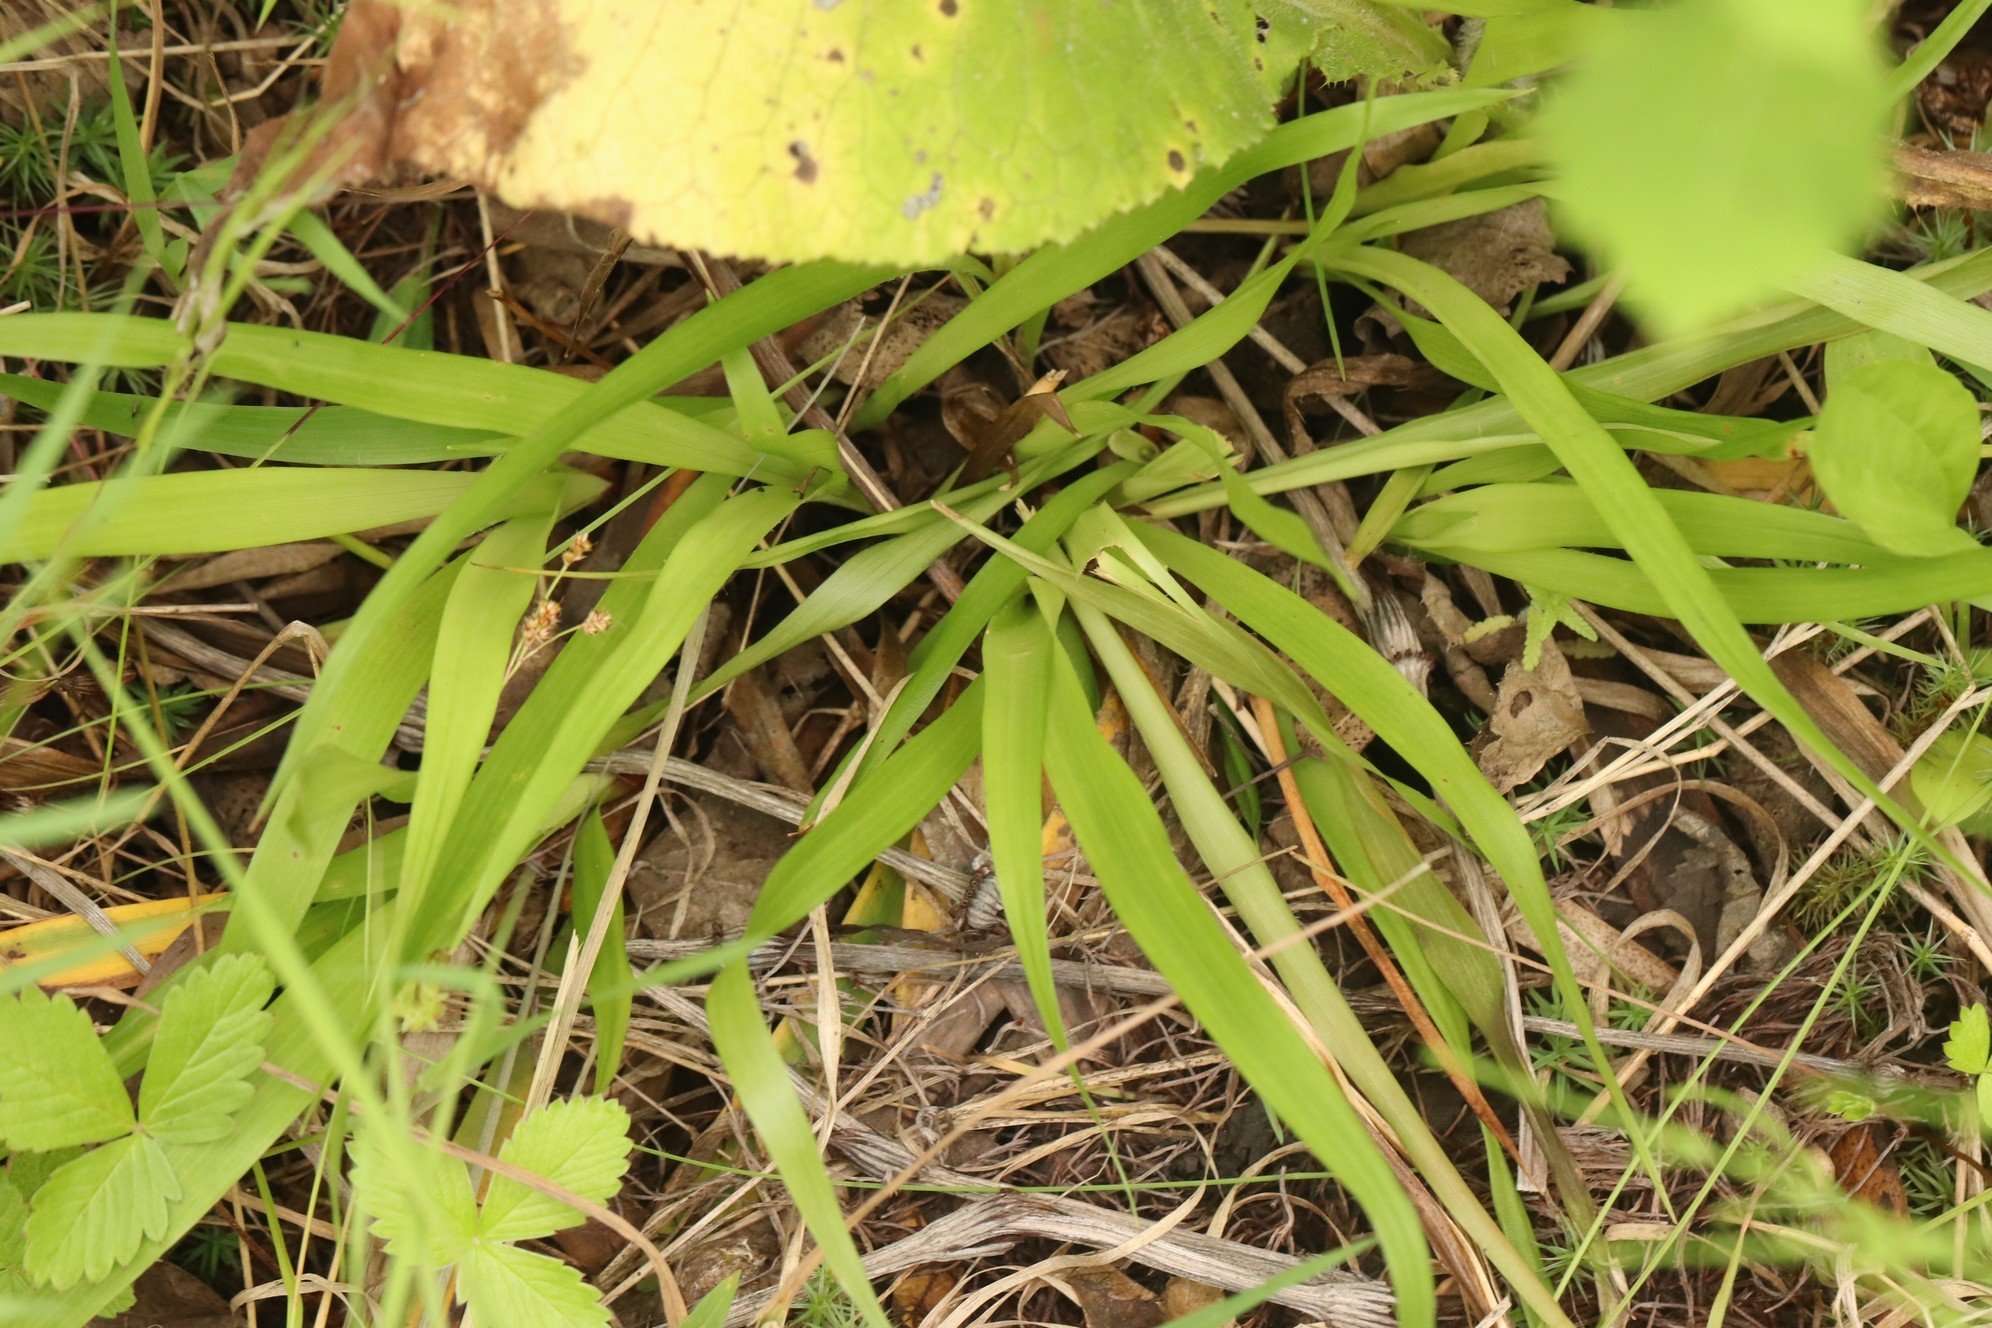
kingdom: Plantae
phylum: Tracheophyta
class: Liliopsida
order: Poales
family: Juncaceae
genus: Luzula
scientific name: Luzula pilosa
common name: Hairy wood-rush
